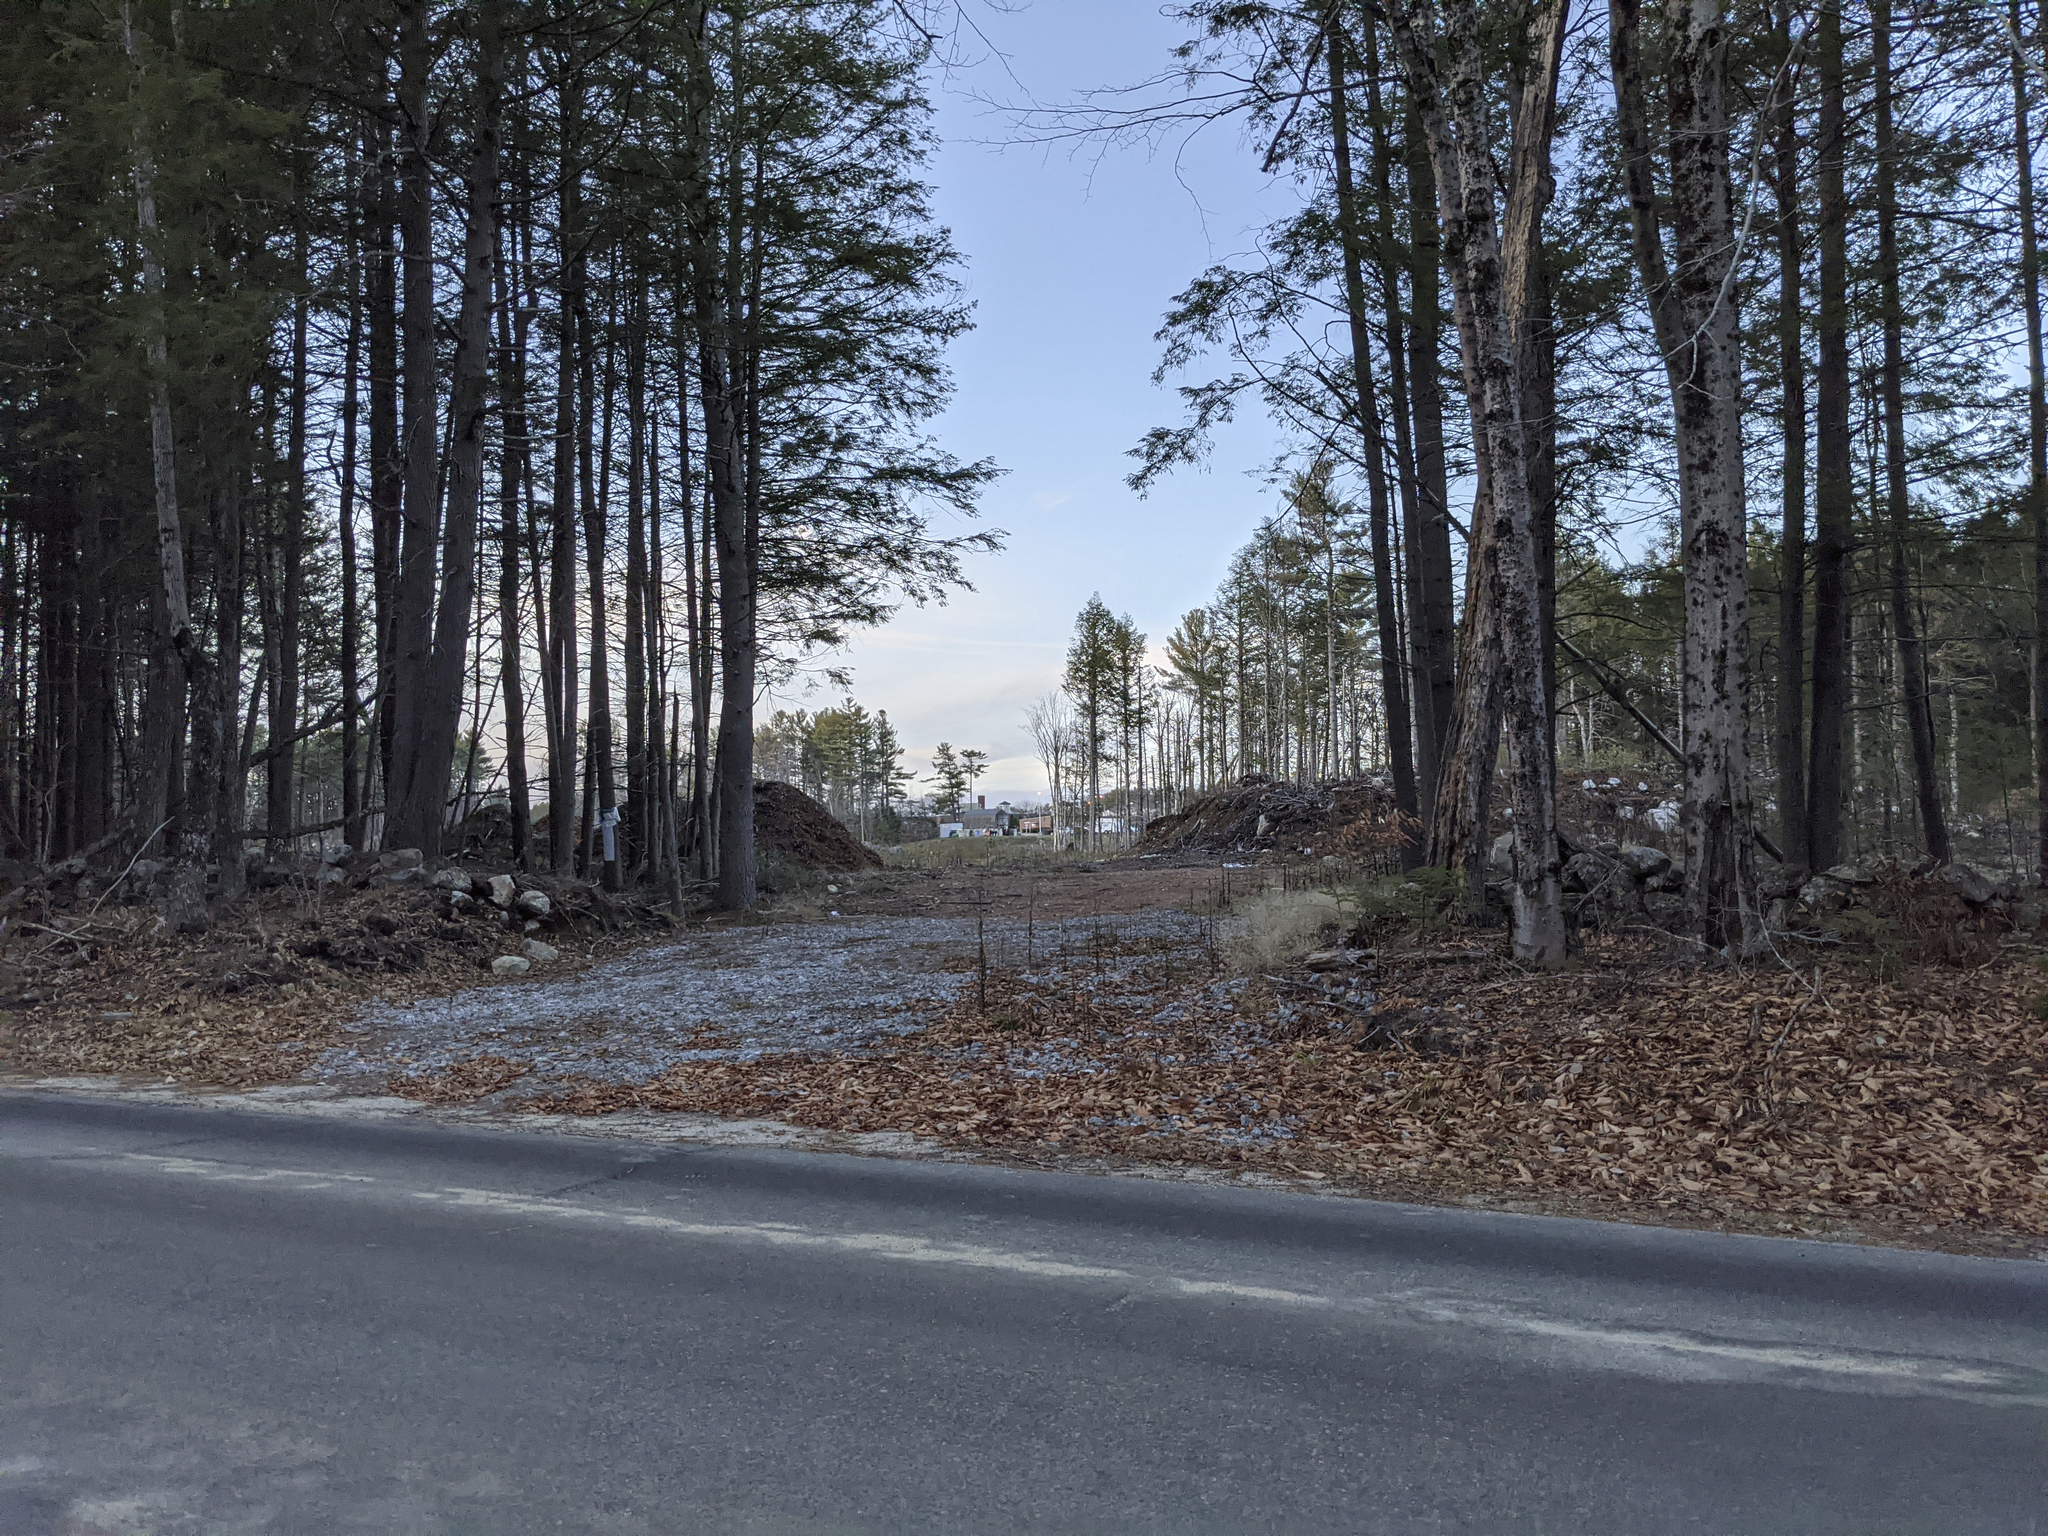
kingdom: Plantae
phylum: Tracheophyta
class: Pinopsida
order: Pinales
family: Pinaceae
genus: Pinus
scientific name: Pinus strobus
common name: Weymouth pine
